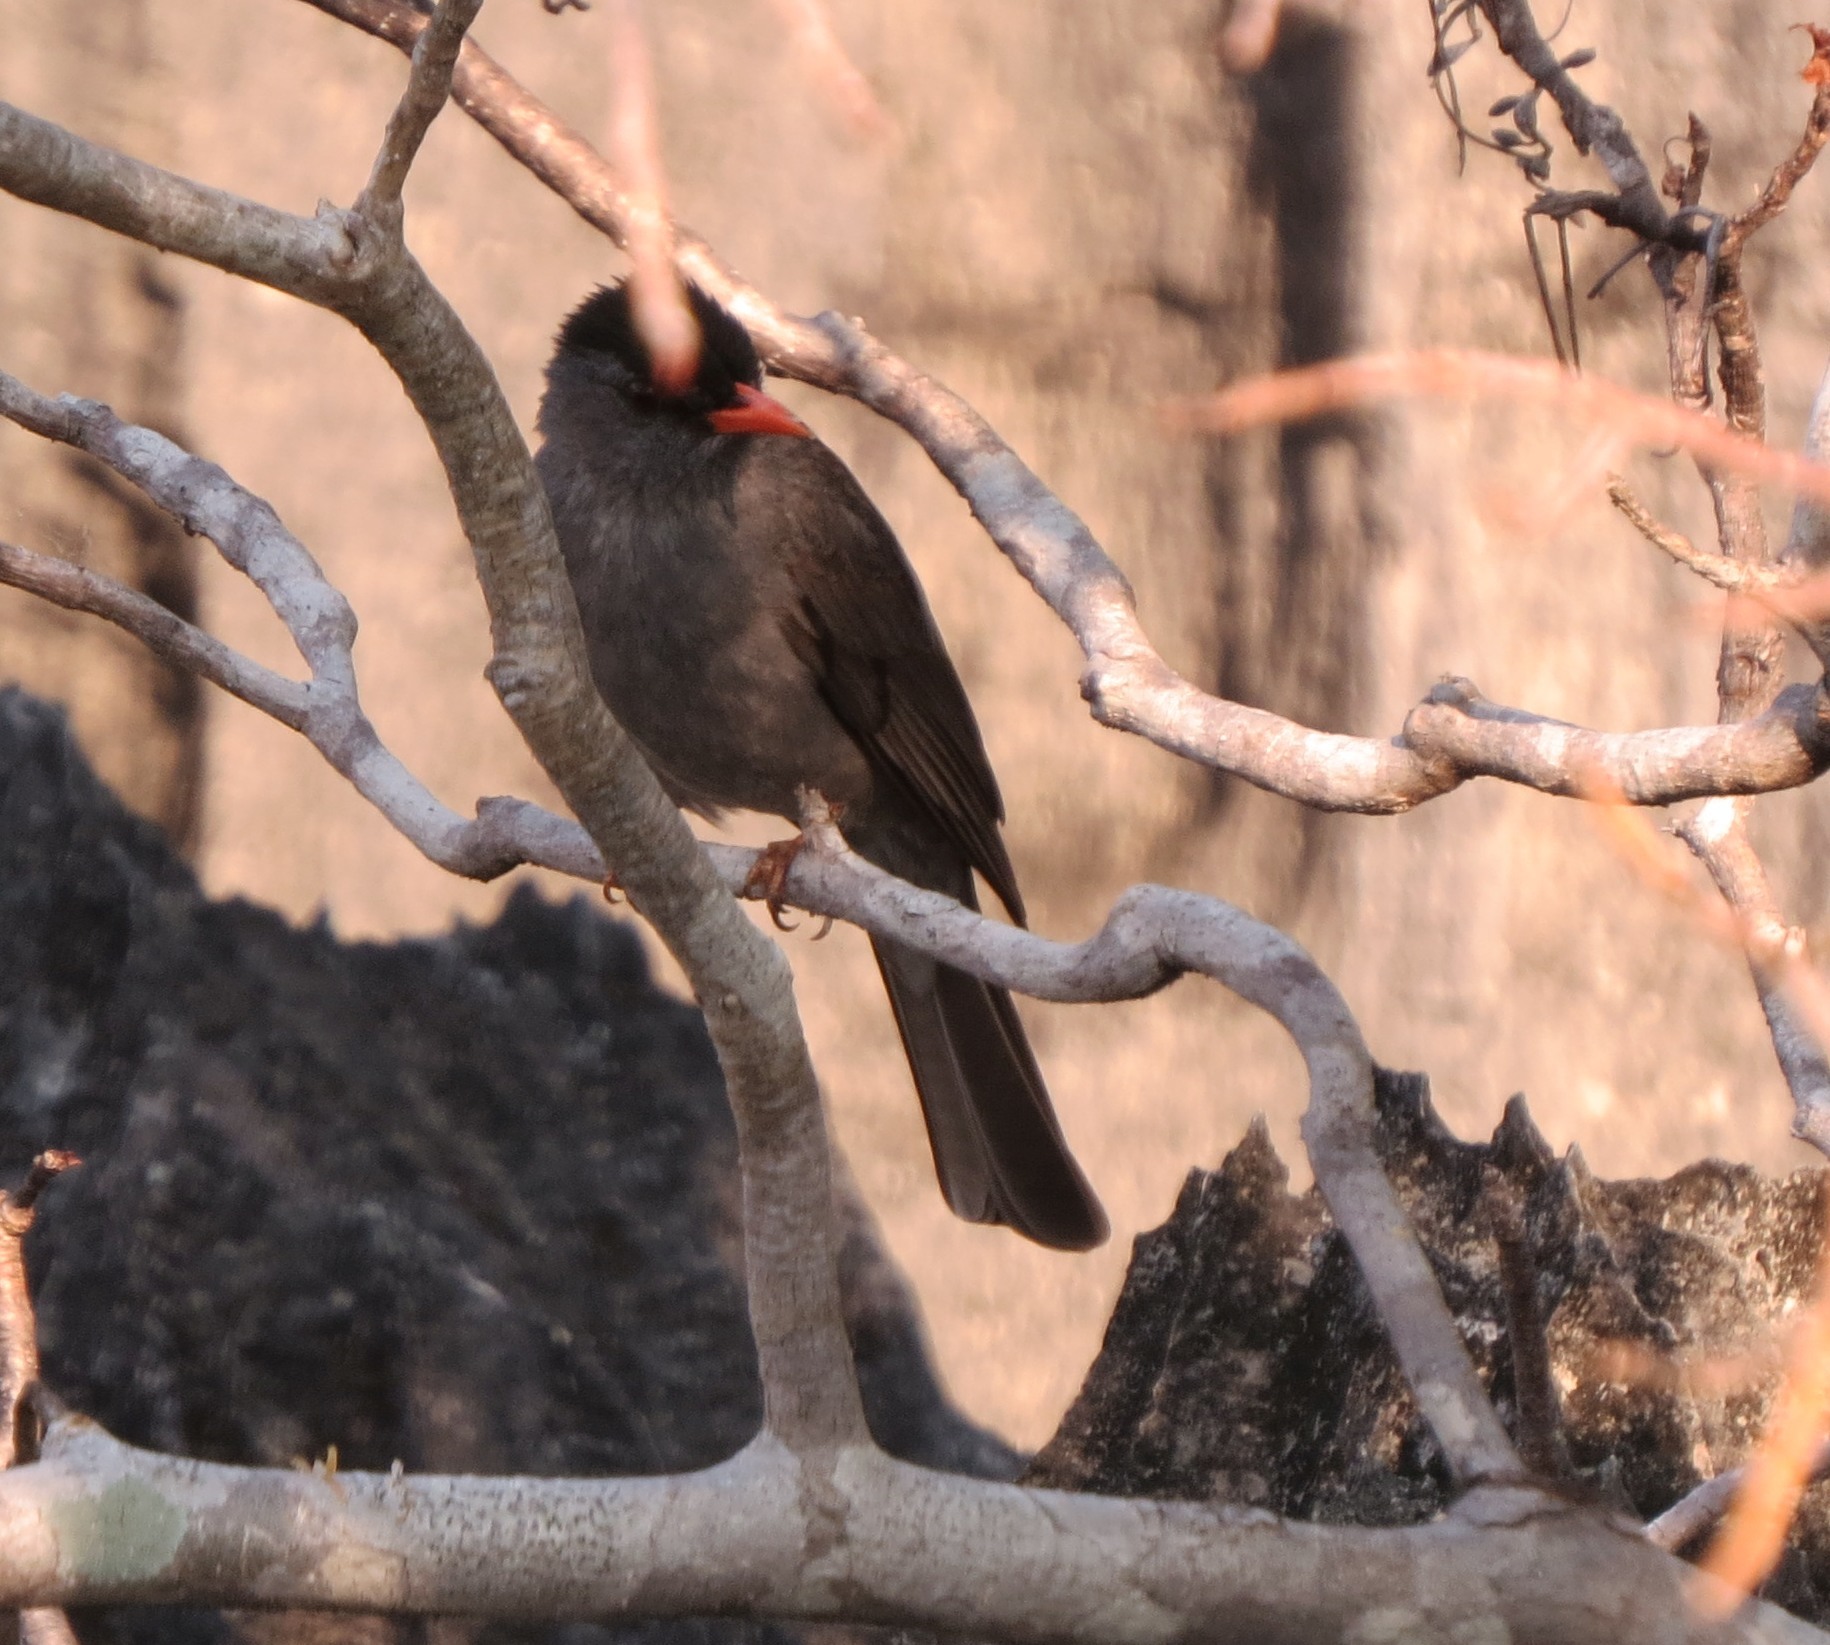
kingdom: Animalia
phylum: Chordata
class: Aves
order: Passeriformes
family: Pycnonotidae
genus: Hypsipetes
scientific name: Hypsipetes madagascariensis
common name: Malagasy bulbul
